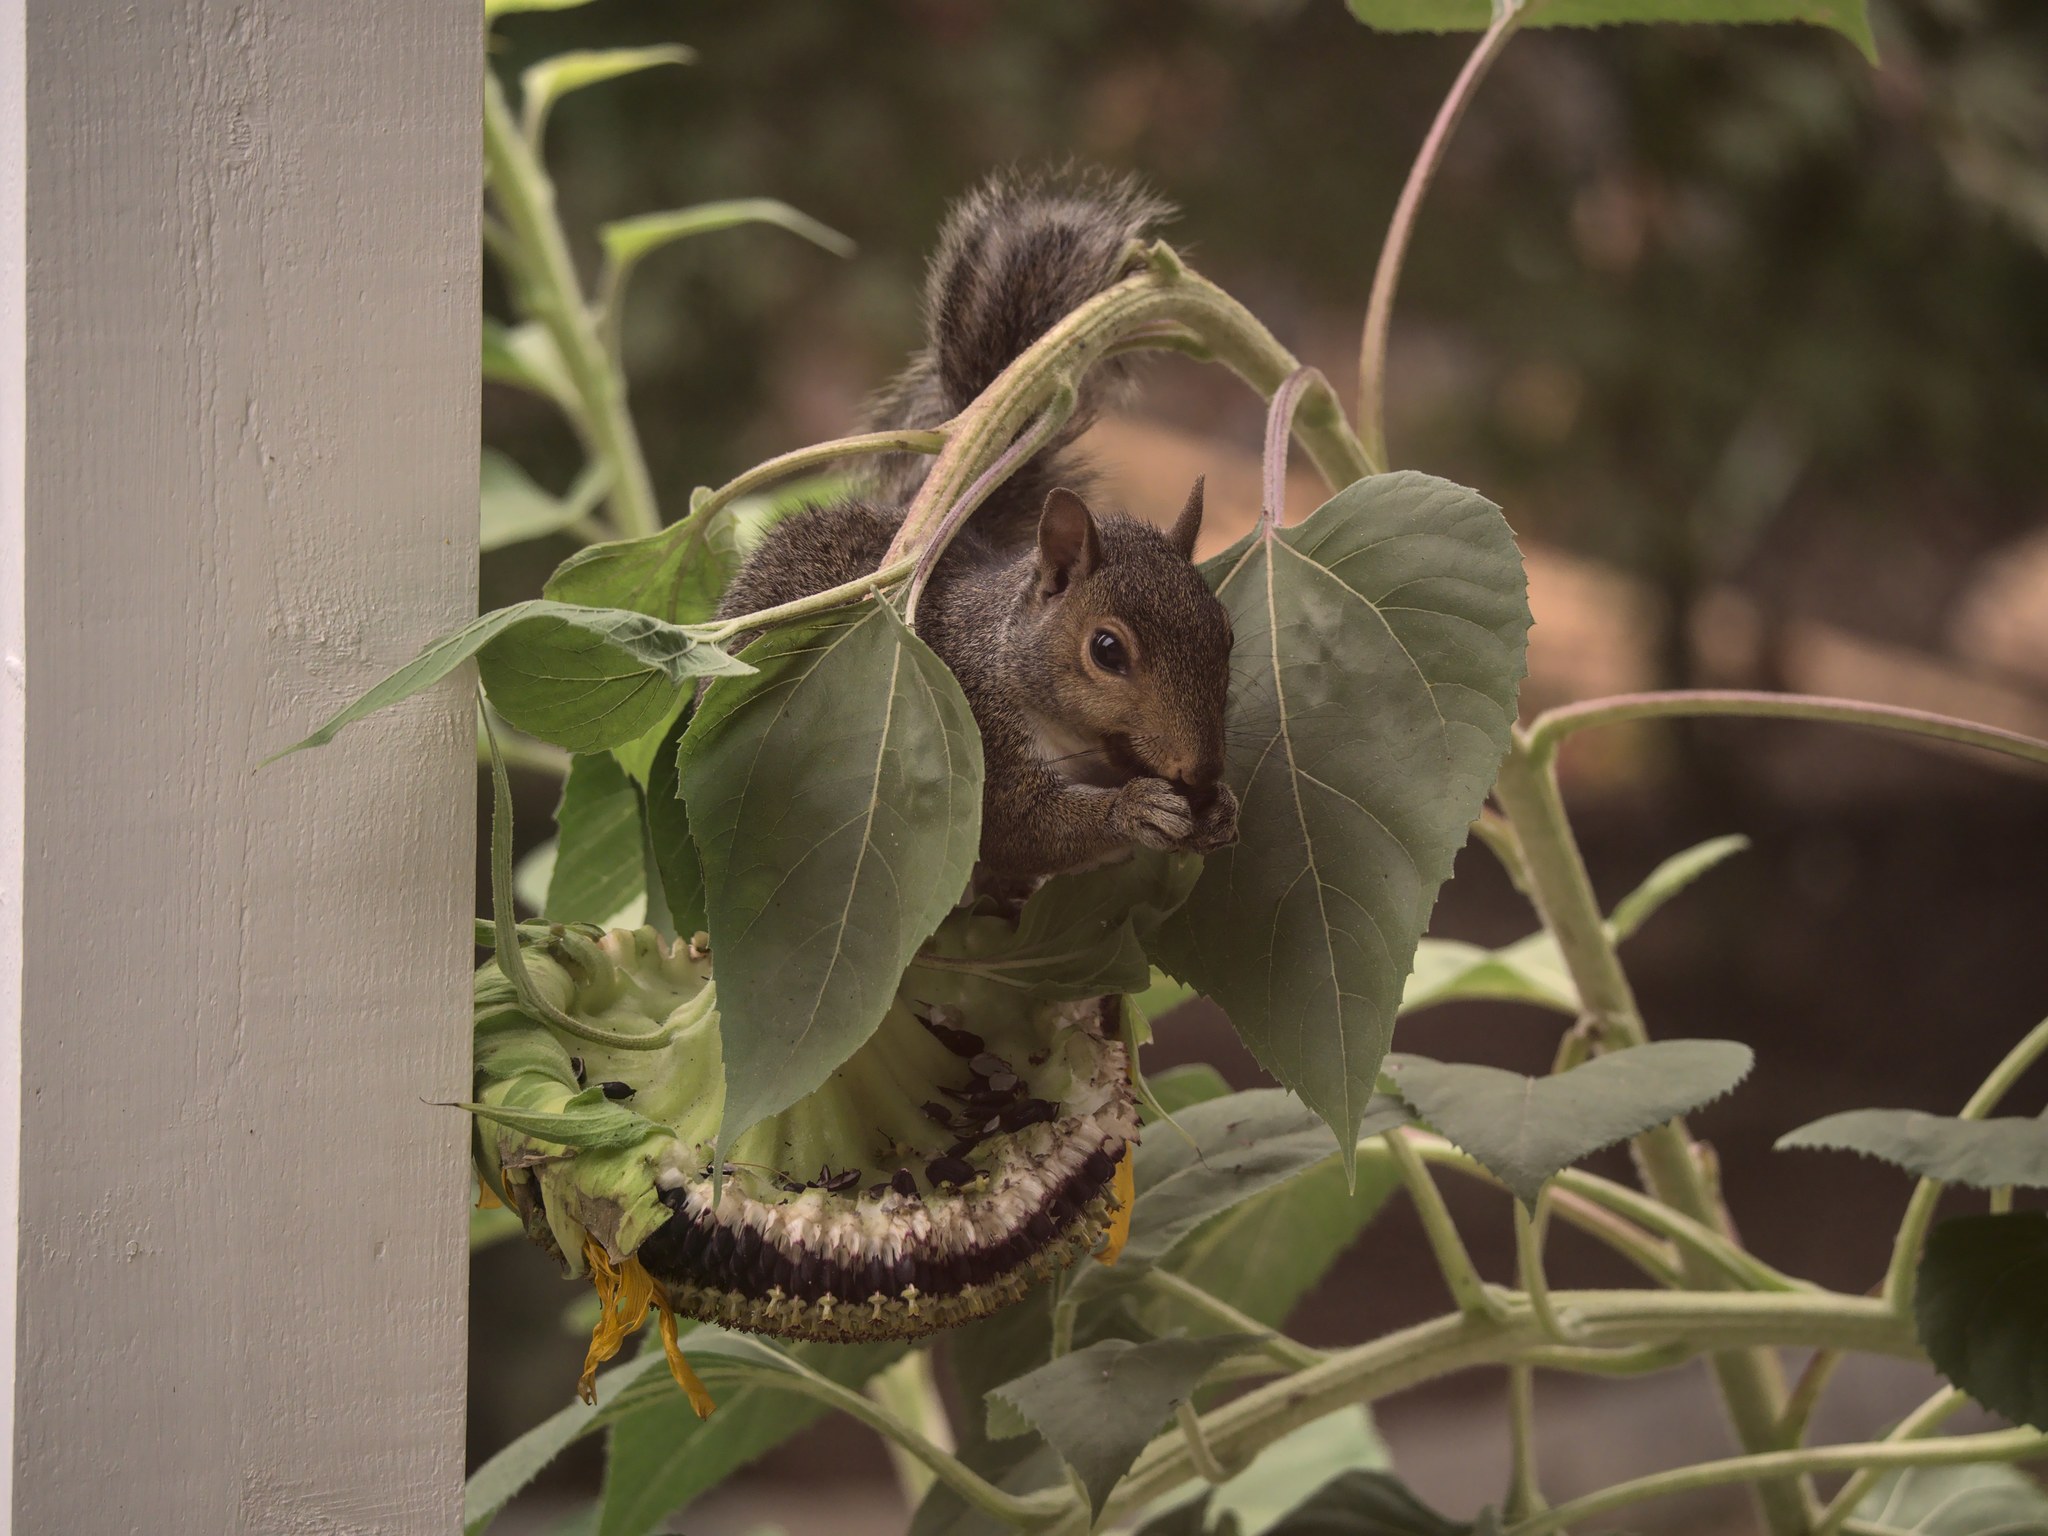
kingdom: Animalia
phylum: Chordata
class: Mammalia
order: Rodentia
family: Sciuridae
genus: Sciurus
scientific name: Sciurus carolinensis
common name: Eastern gray squirrel
